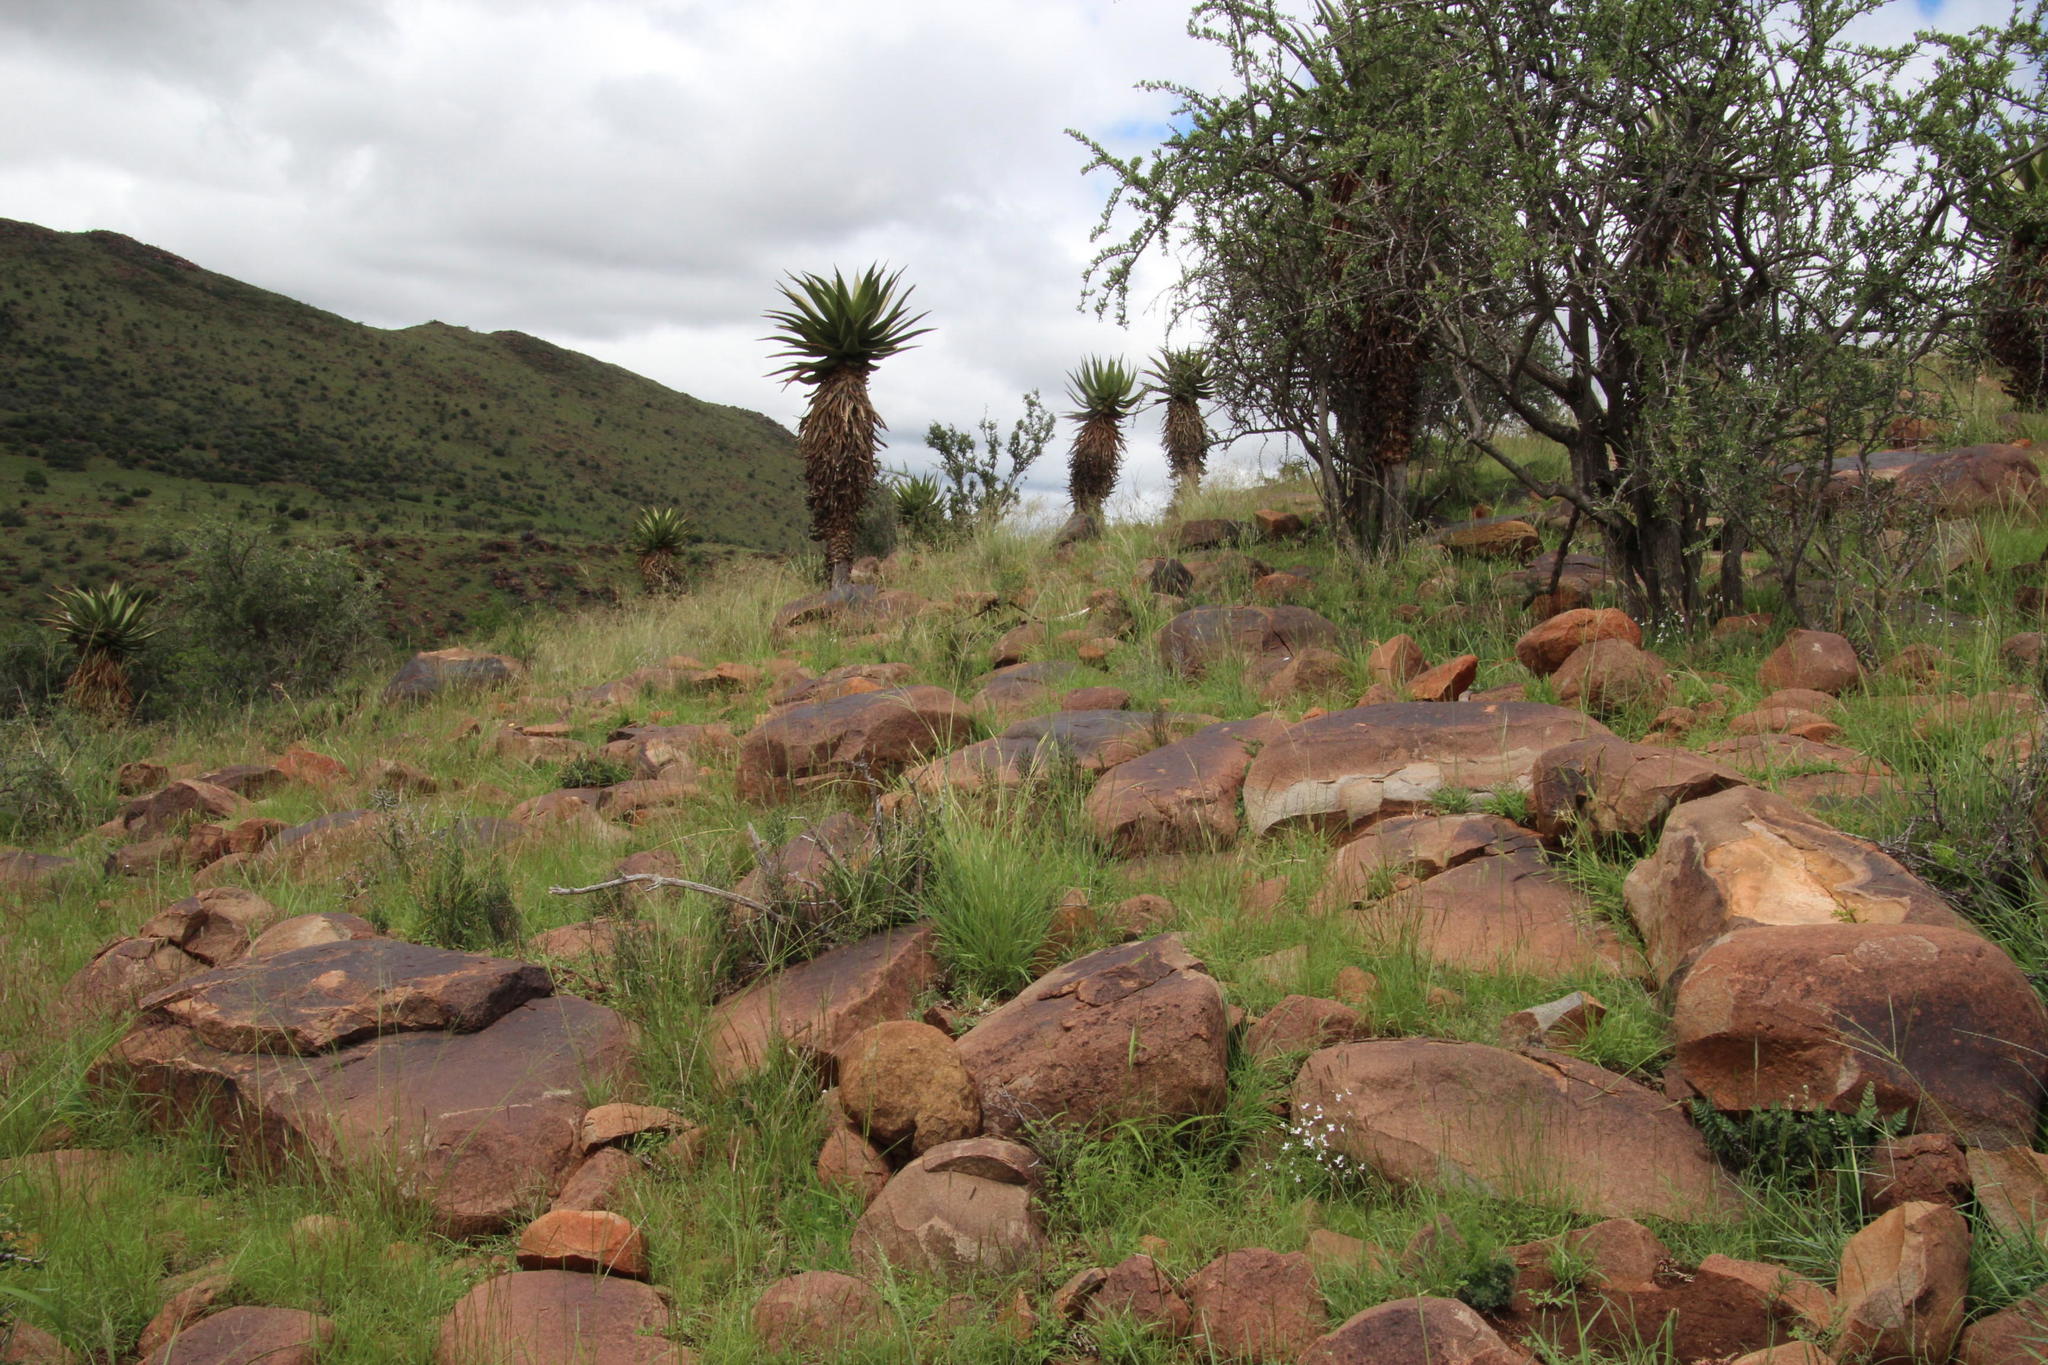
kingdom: Plantae
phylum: Tracheophyta
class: Liliopsida
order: Asparagales
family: Asphodelaceae
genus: Aloe
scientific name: Aloe ferox
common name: Bitter aloe
